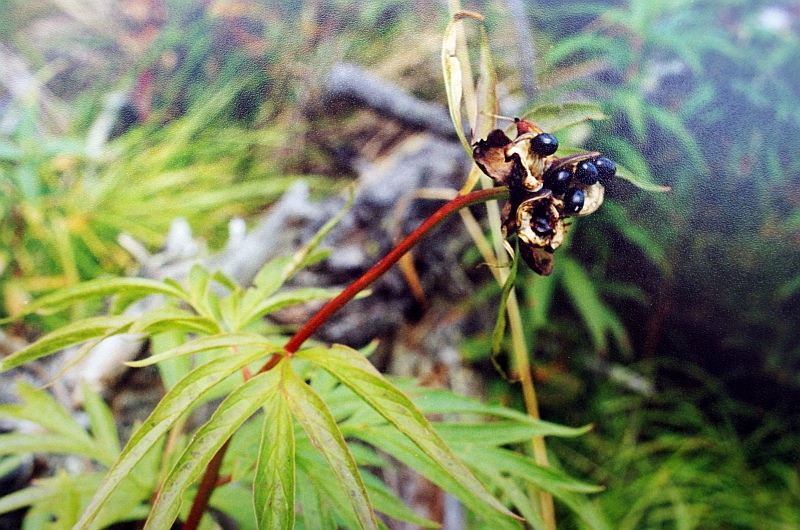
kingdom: Plantae
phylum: Tracheophyta
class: Magnoliopsida
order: Saxifragales
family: Paeoniaceae
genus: Paeonia
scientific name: Paeonia anomala
